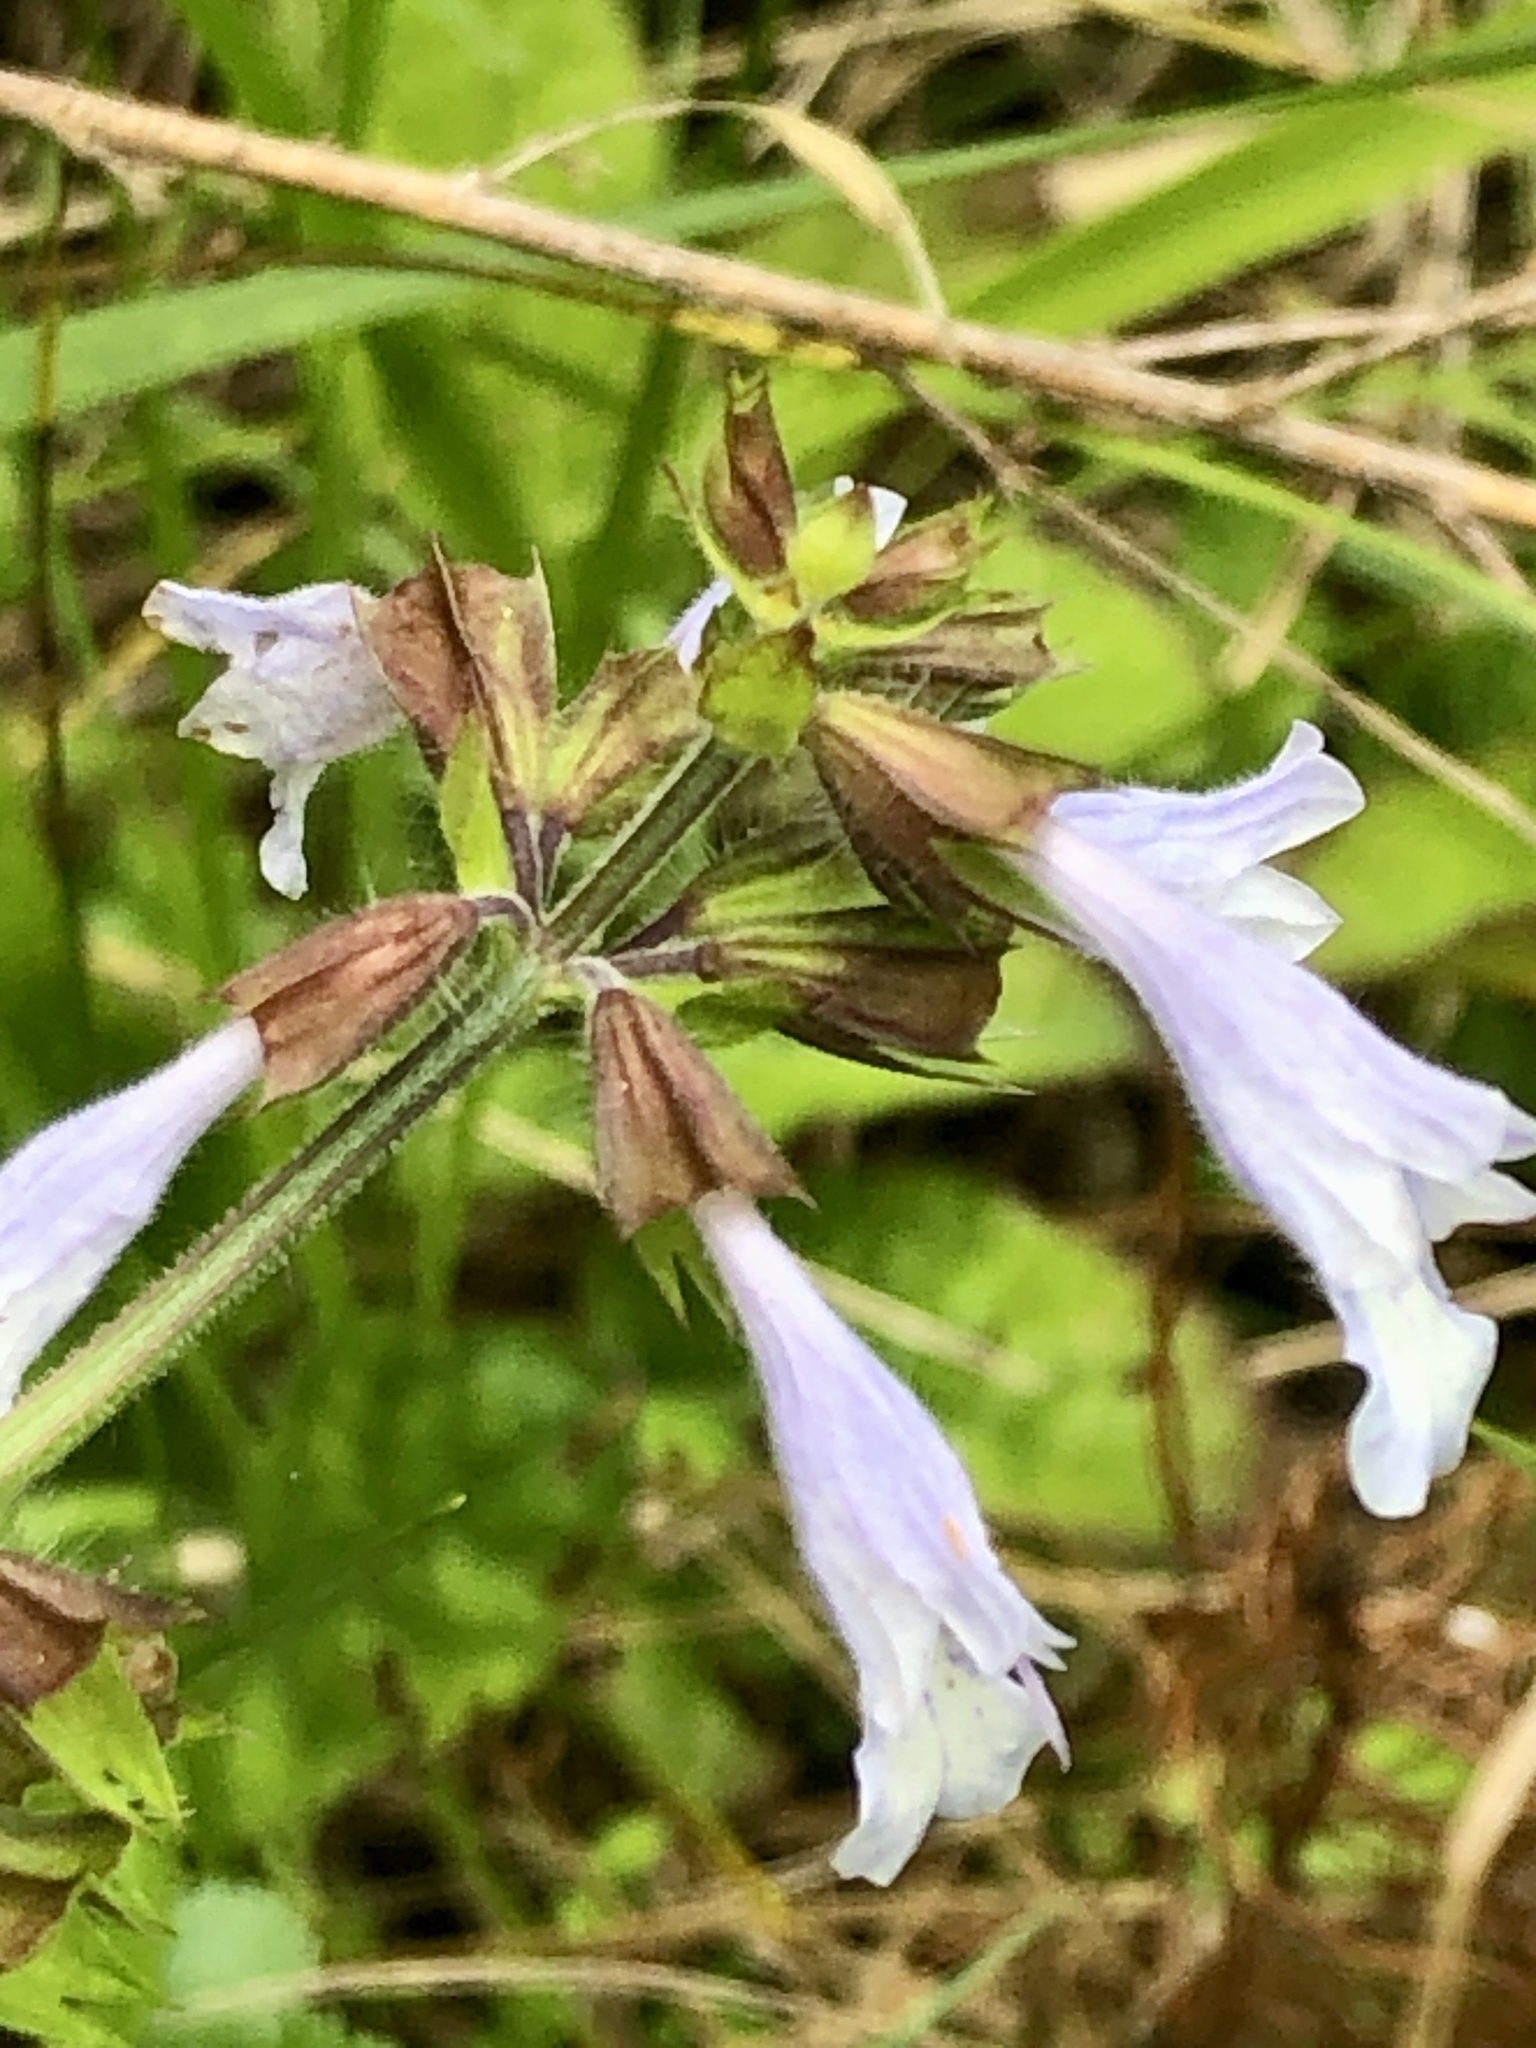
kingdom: Plantae
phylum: Tracheophyta
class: Magnoliopsida
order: Lamiales
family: Lamiaceae
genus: Salvia
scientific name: Salvia lyrata
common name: Cancerweed
